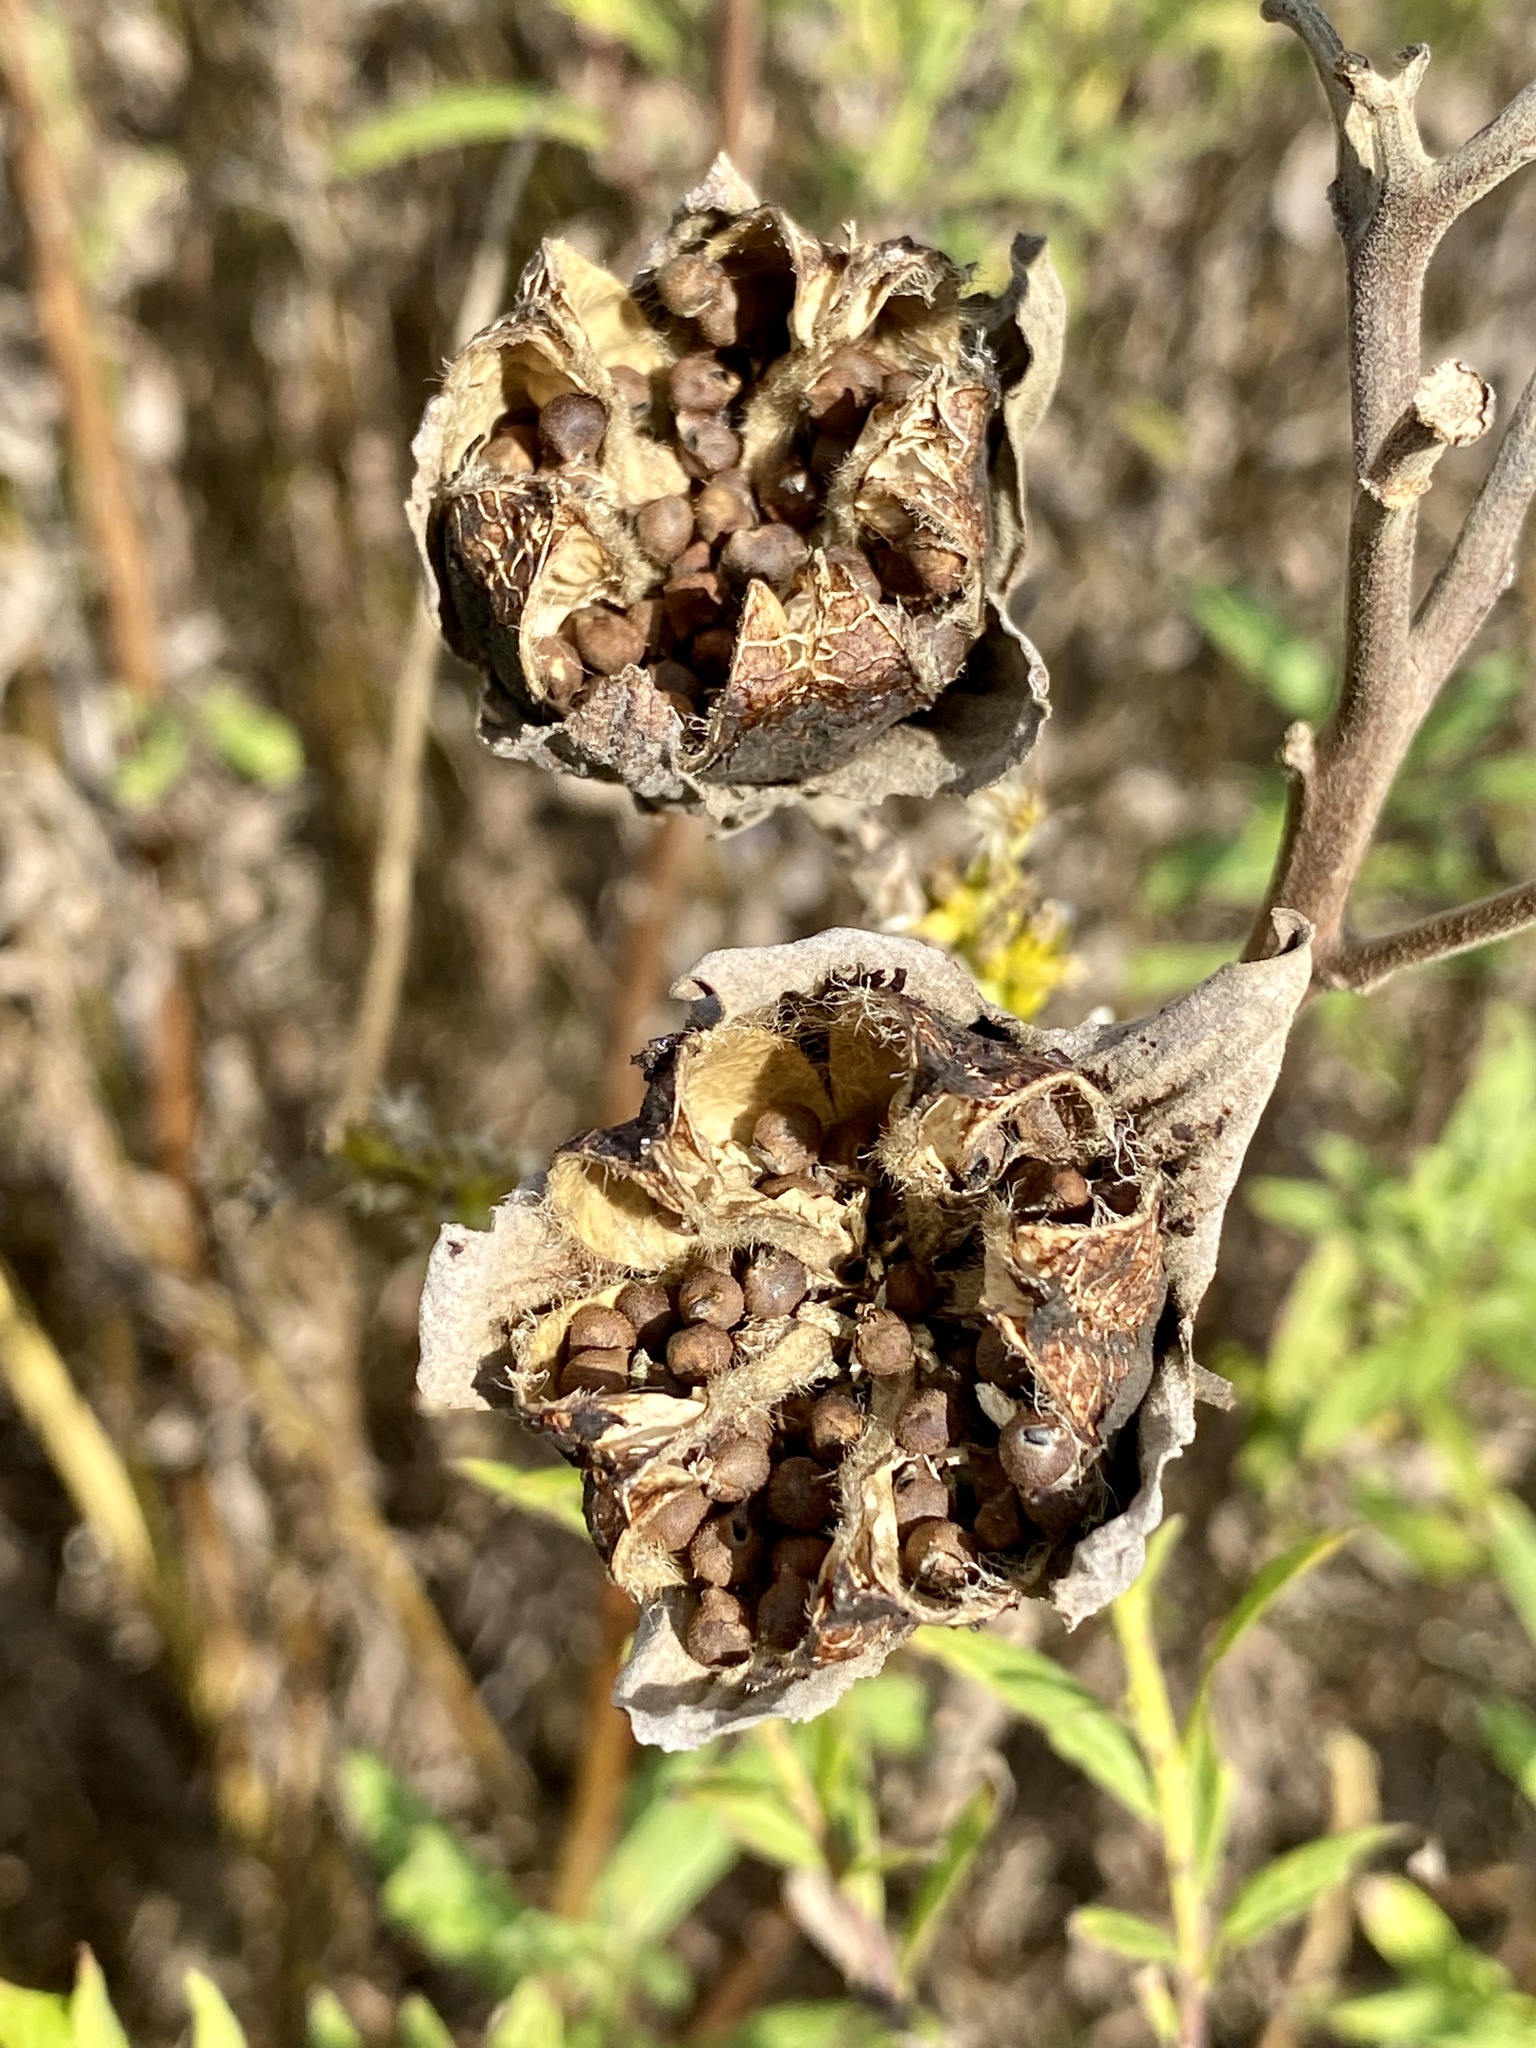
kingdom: Plantae
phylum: Tracheophyta
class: Magnoliopsida
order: Malvales
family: Malvaceae
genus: Hibiscus
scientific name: Hibiscus moscheutos
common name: Common rose-mallow
